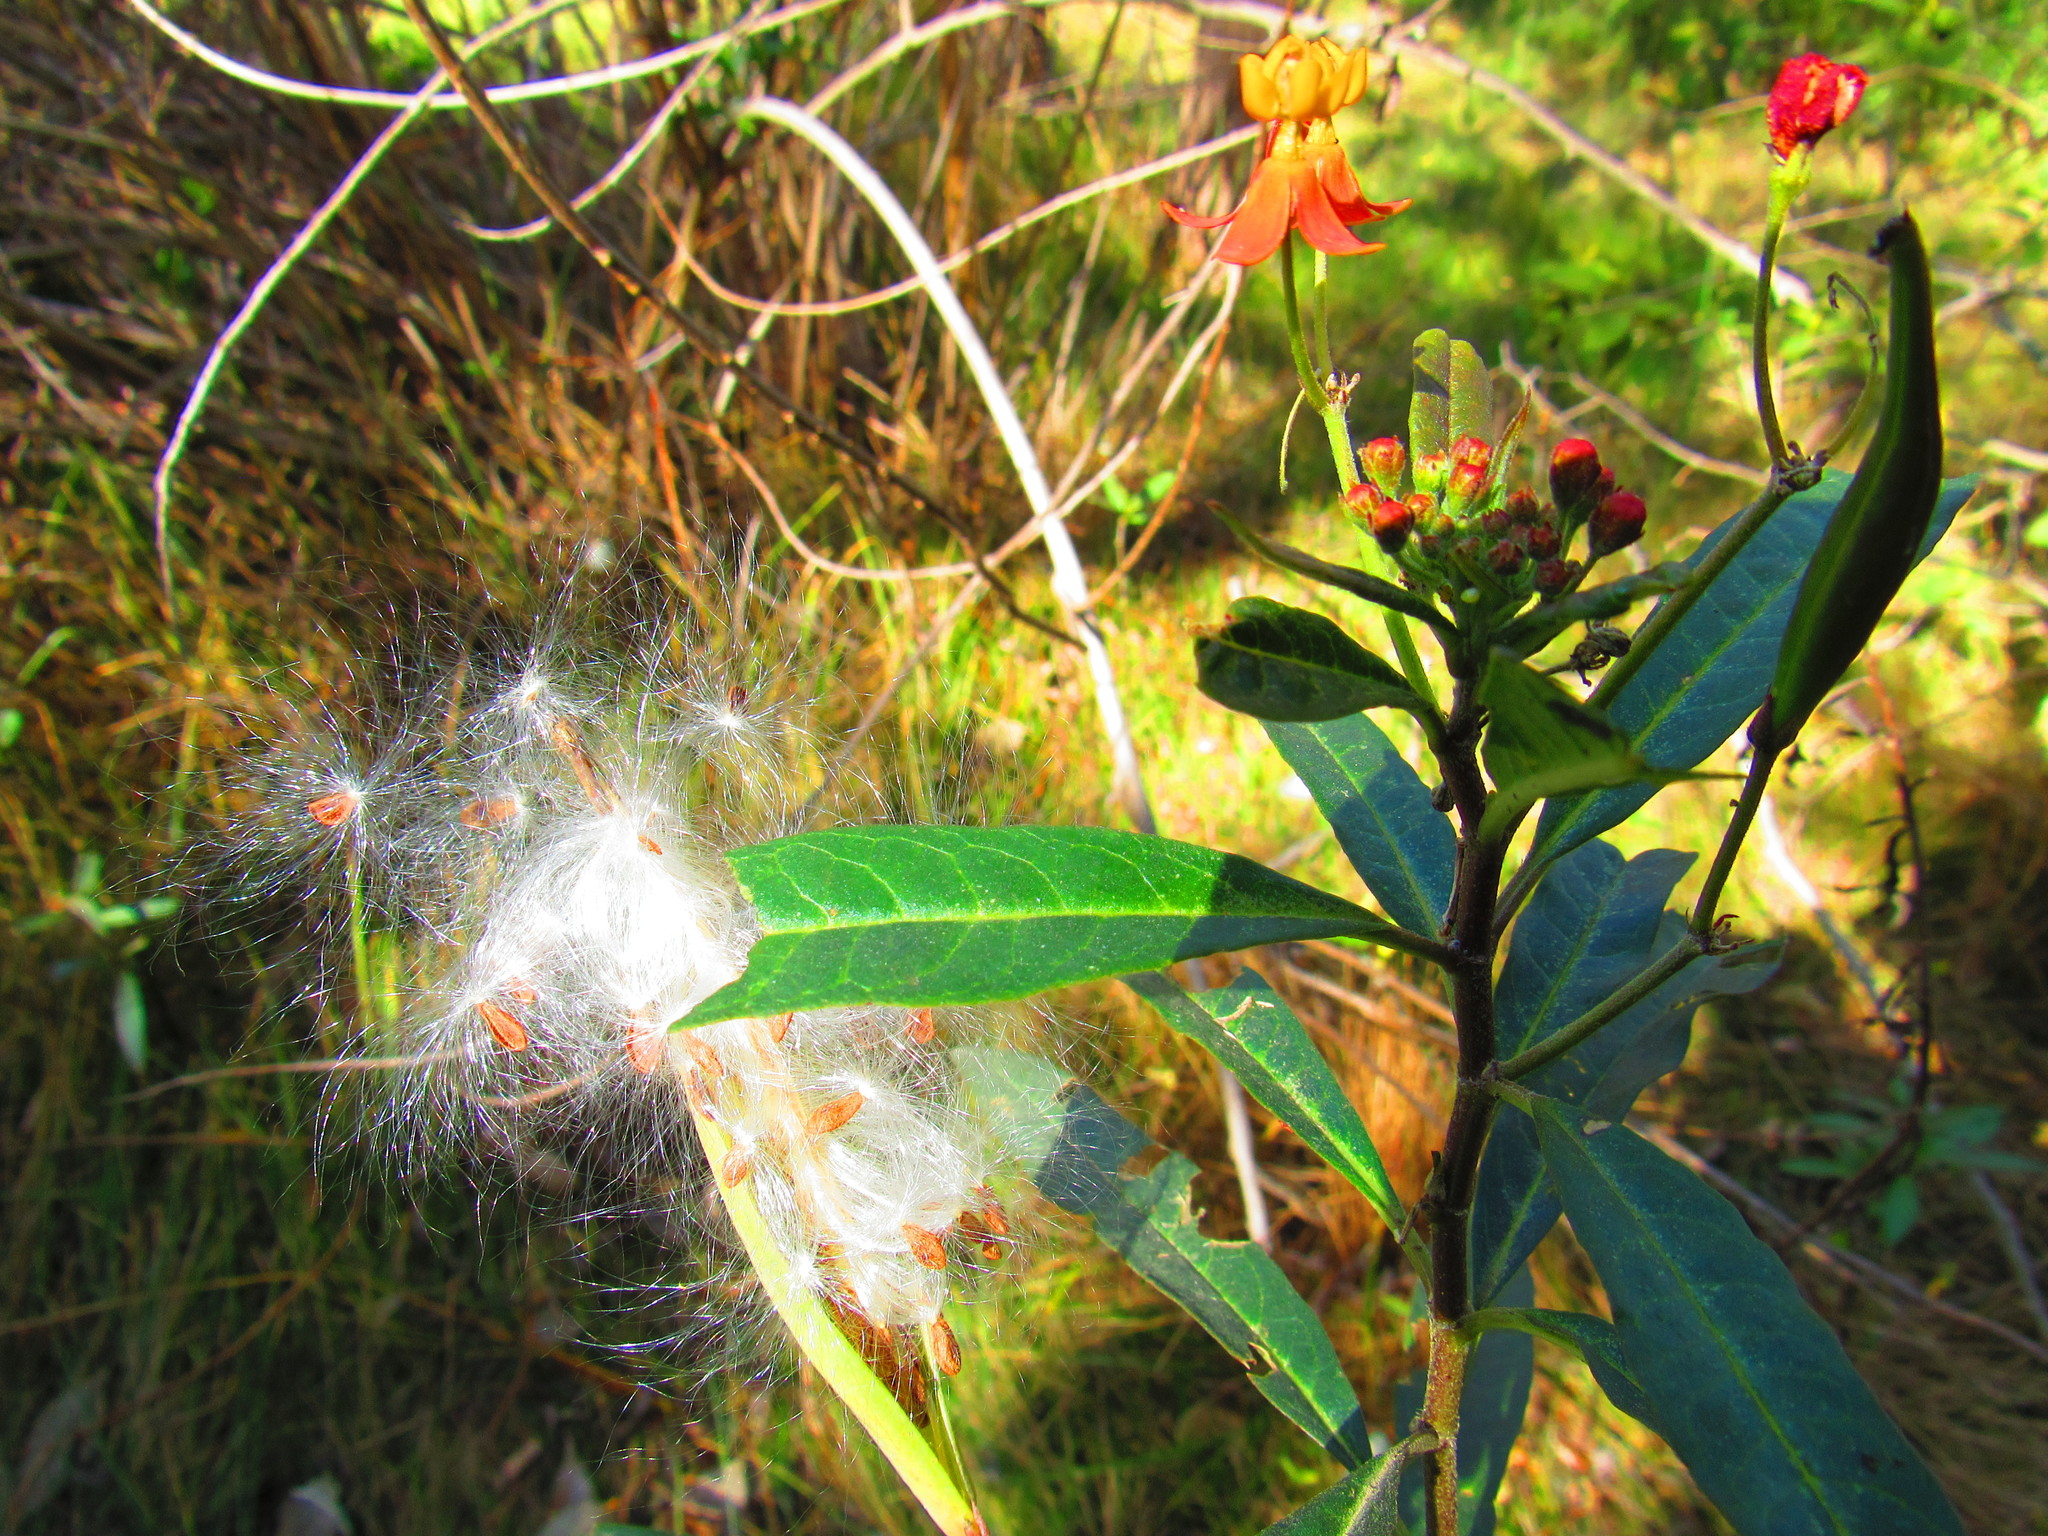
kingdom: Plantae
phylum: Tracheophyta
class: Magnoliopsida
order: Gentianales
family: Apocynaceae
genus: Asclepias
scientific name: Asclepias curassavica
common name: Bloodflower
